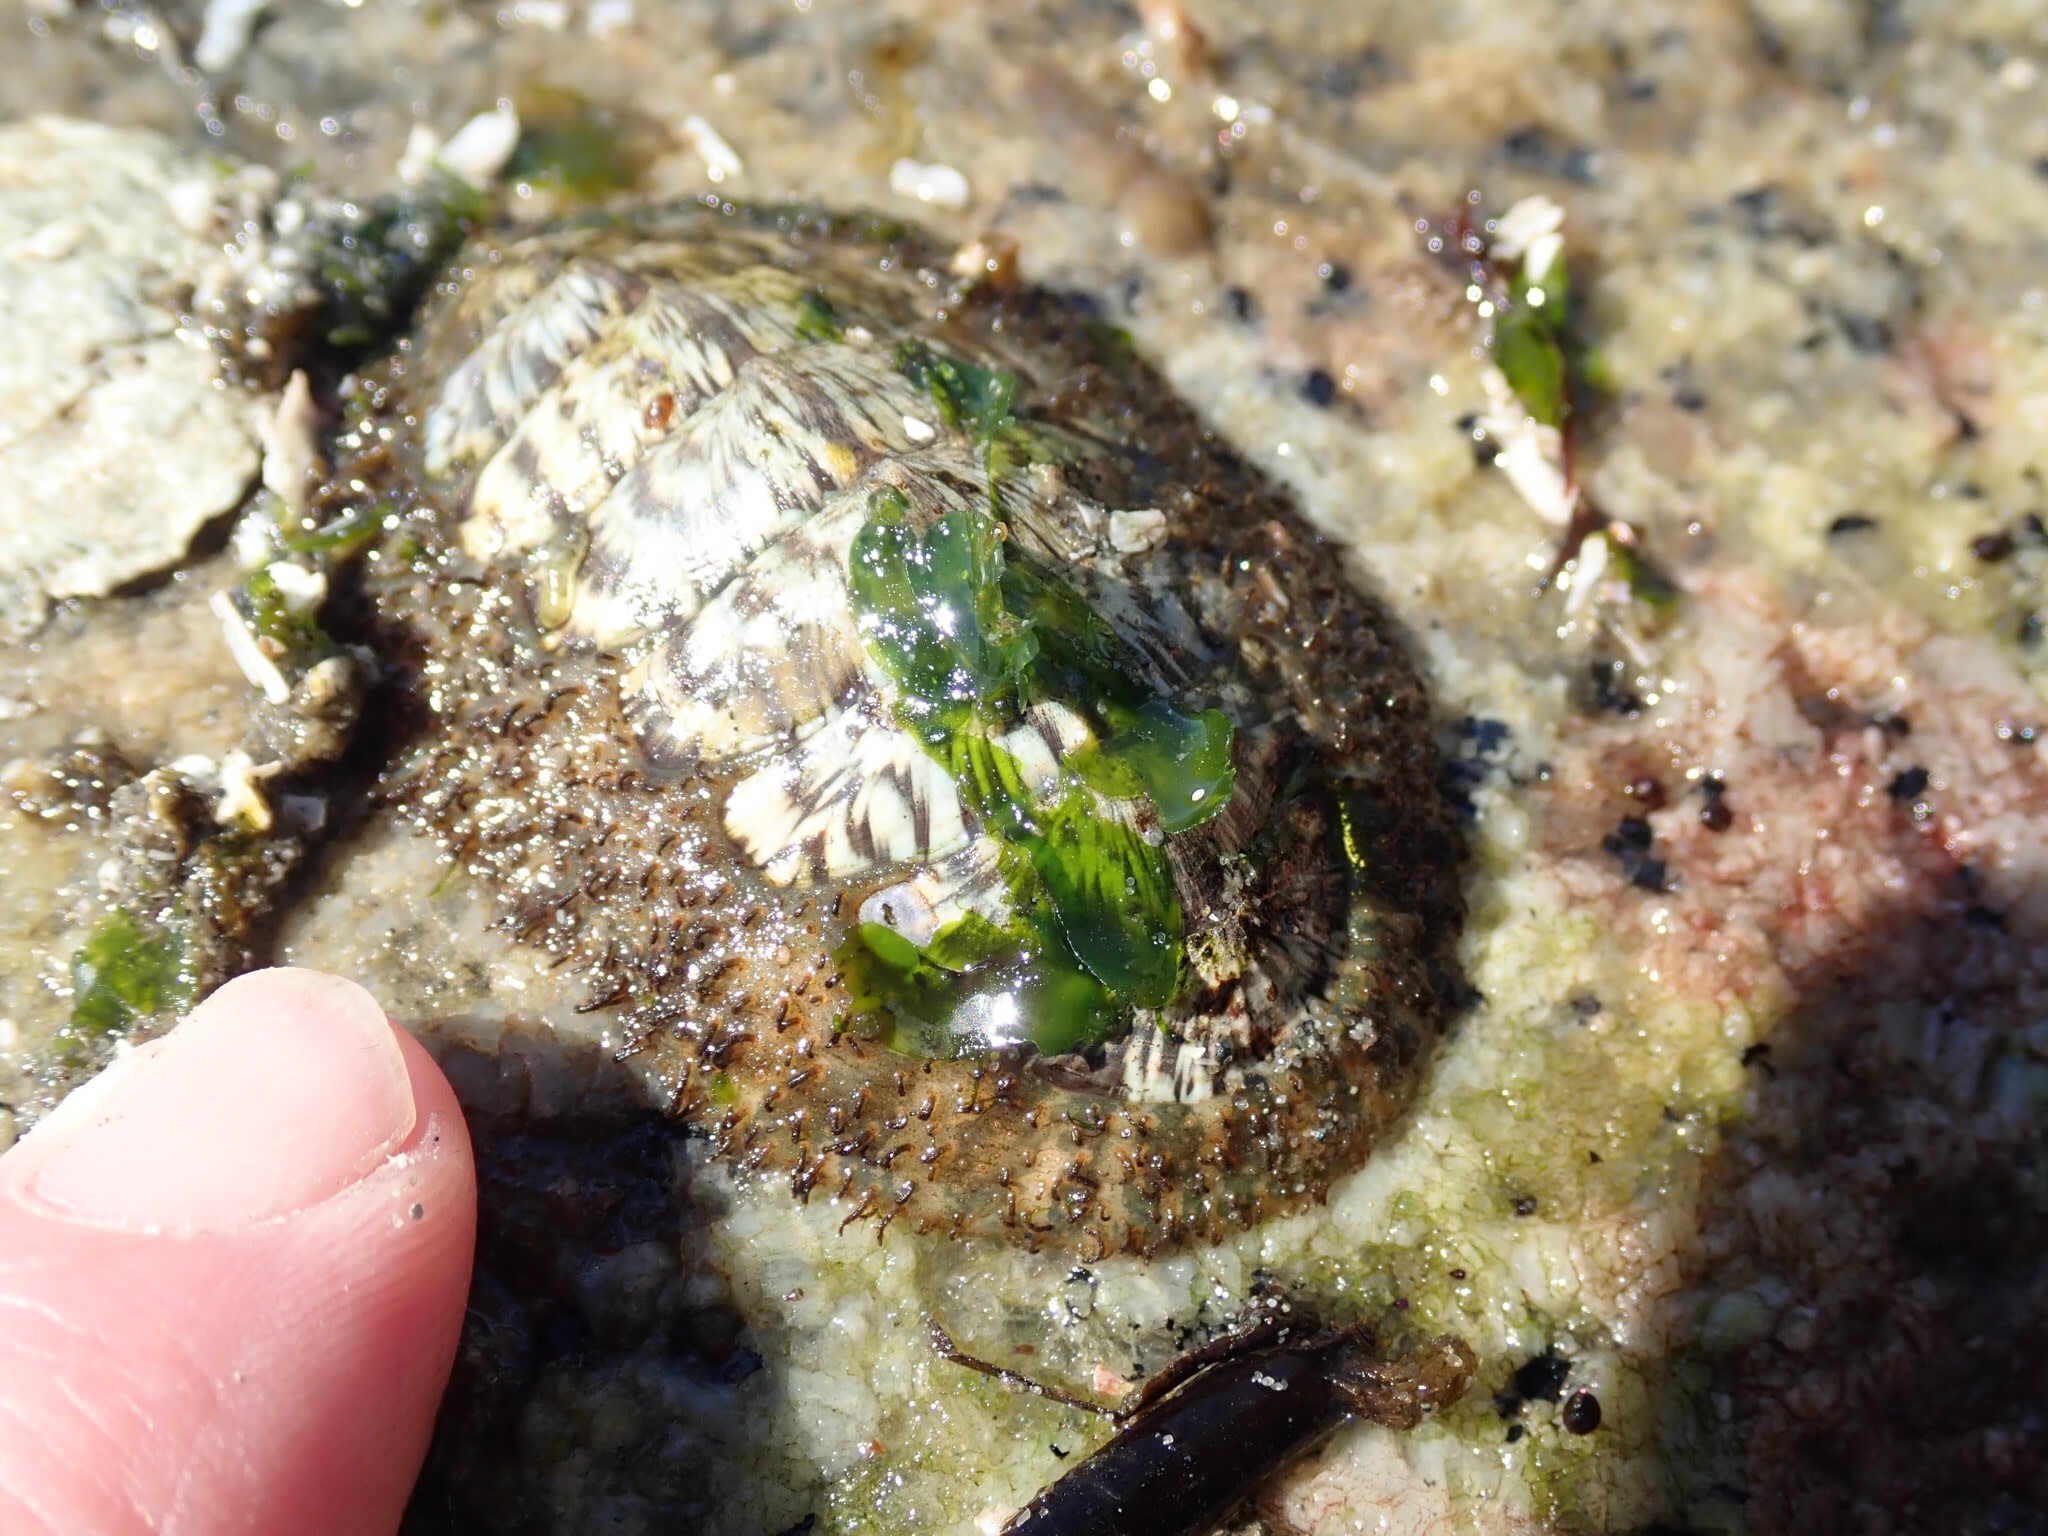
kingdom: Animalia
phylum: Mollusca
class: Polyplacophora
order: Chitonida
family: Mopaliidae
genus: Mopalia
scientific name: Mopalia lignosa
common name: Woody chiton
